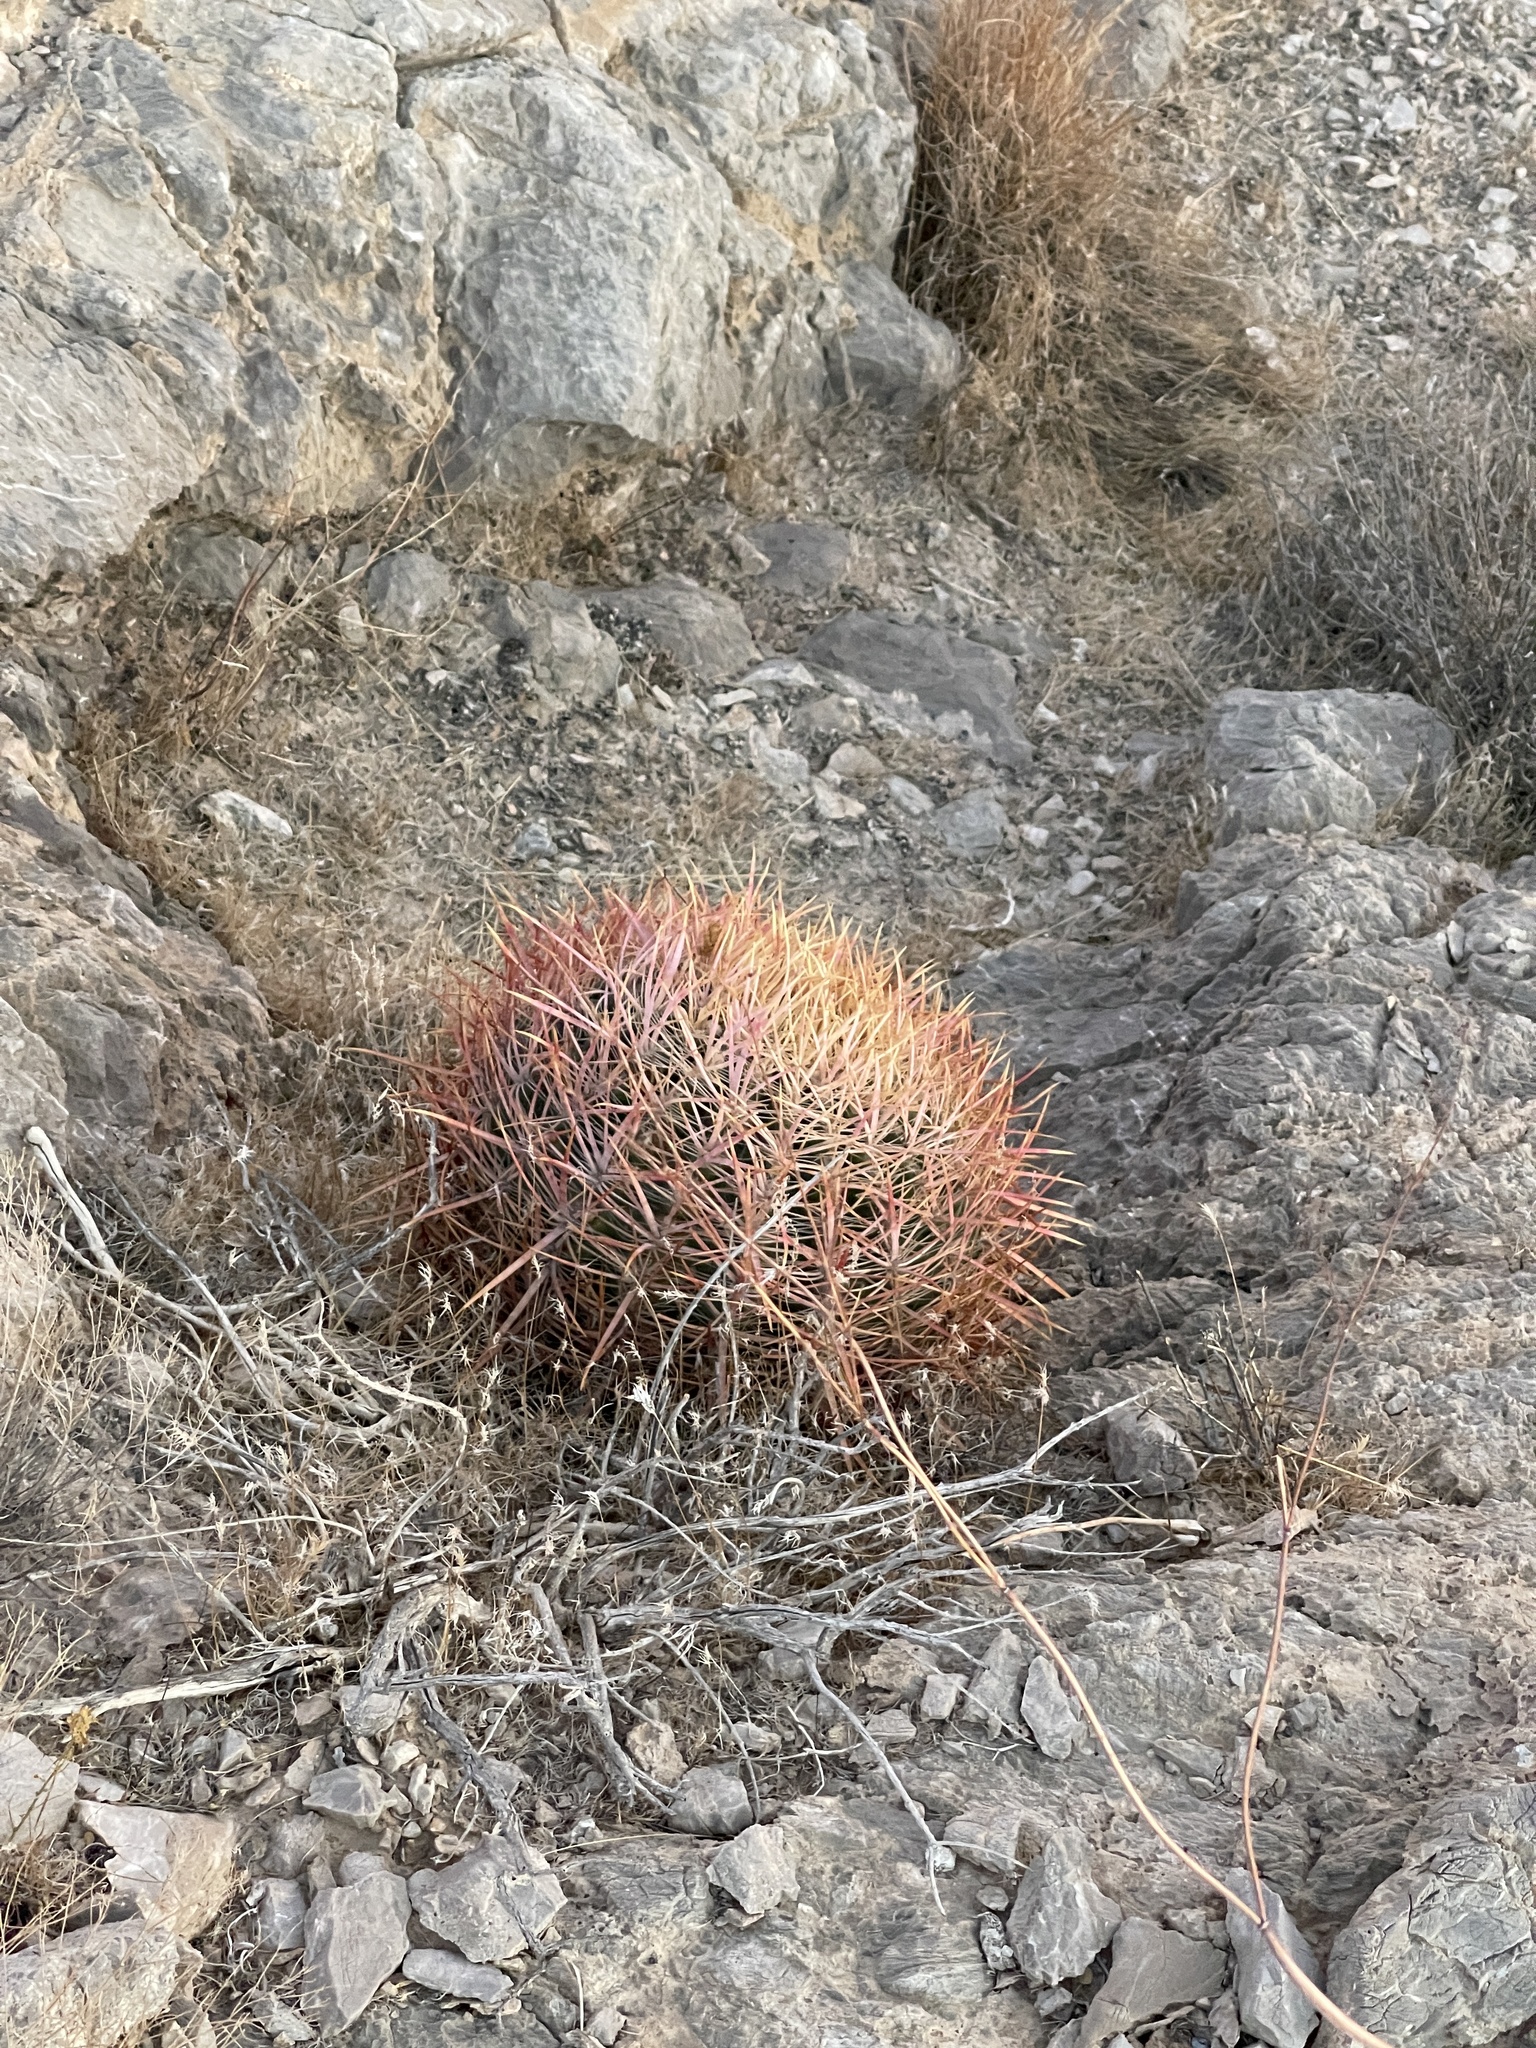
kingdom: Plantae
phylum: Tracheophyta
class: Magnoliopsida
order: Caryophyllales
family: Cactaceae
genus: Ferocactus
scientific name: Ferocactus cylindraceus
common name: California barrel cactus
